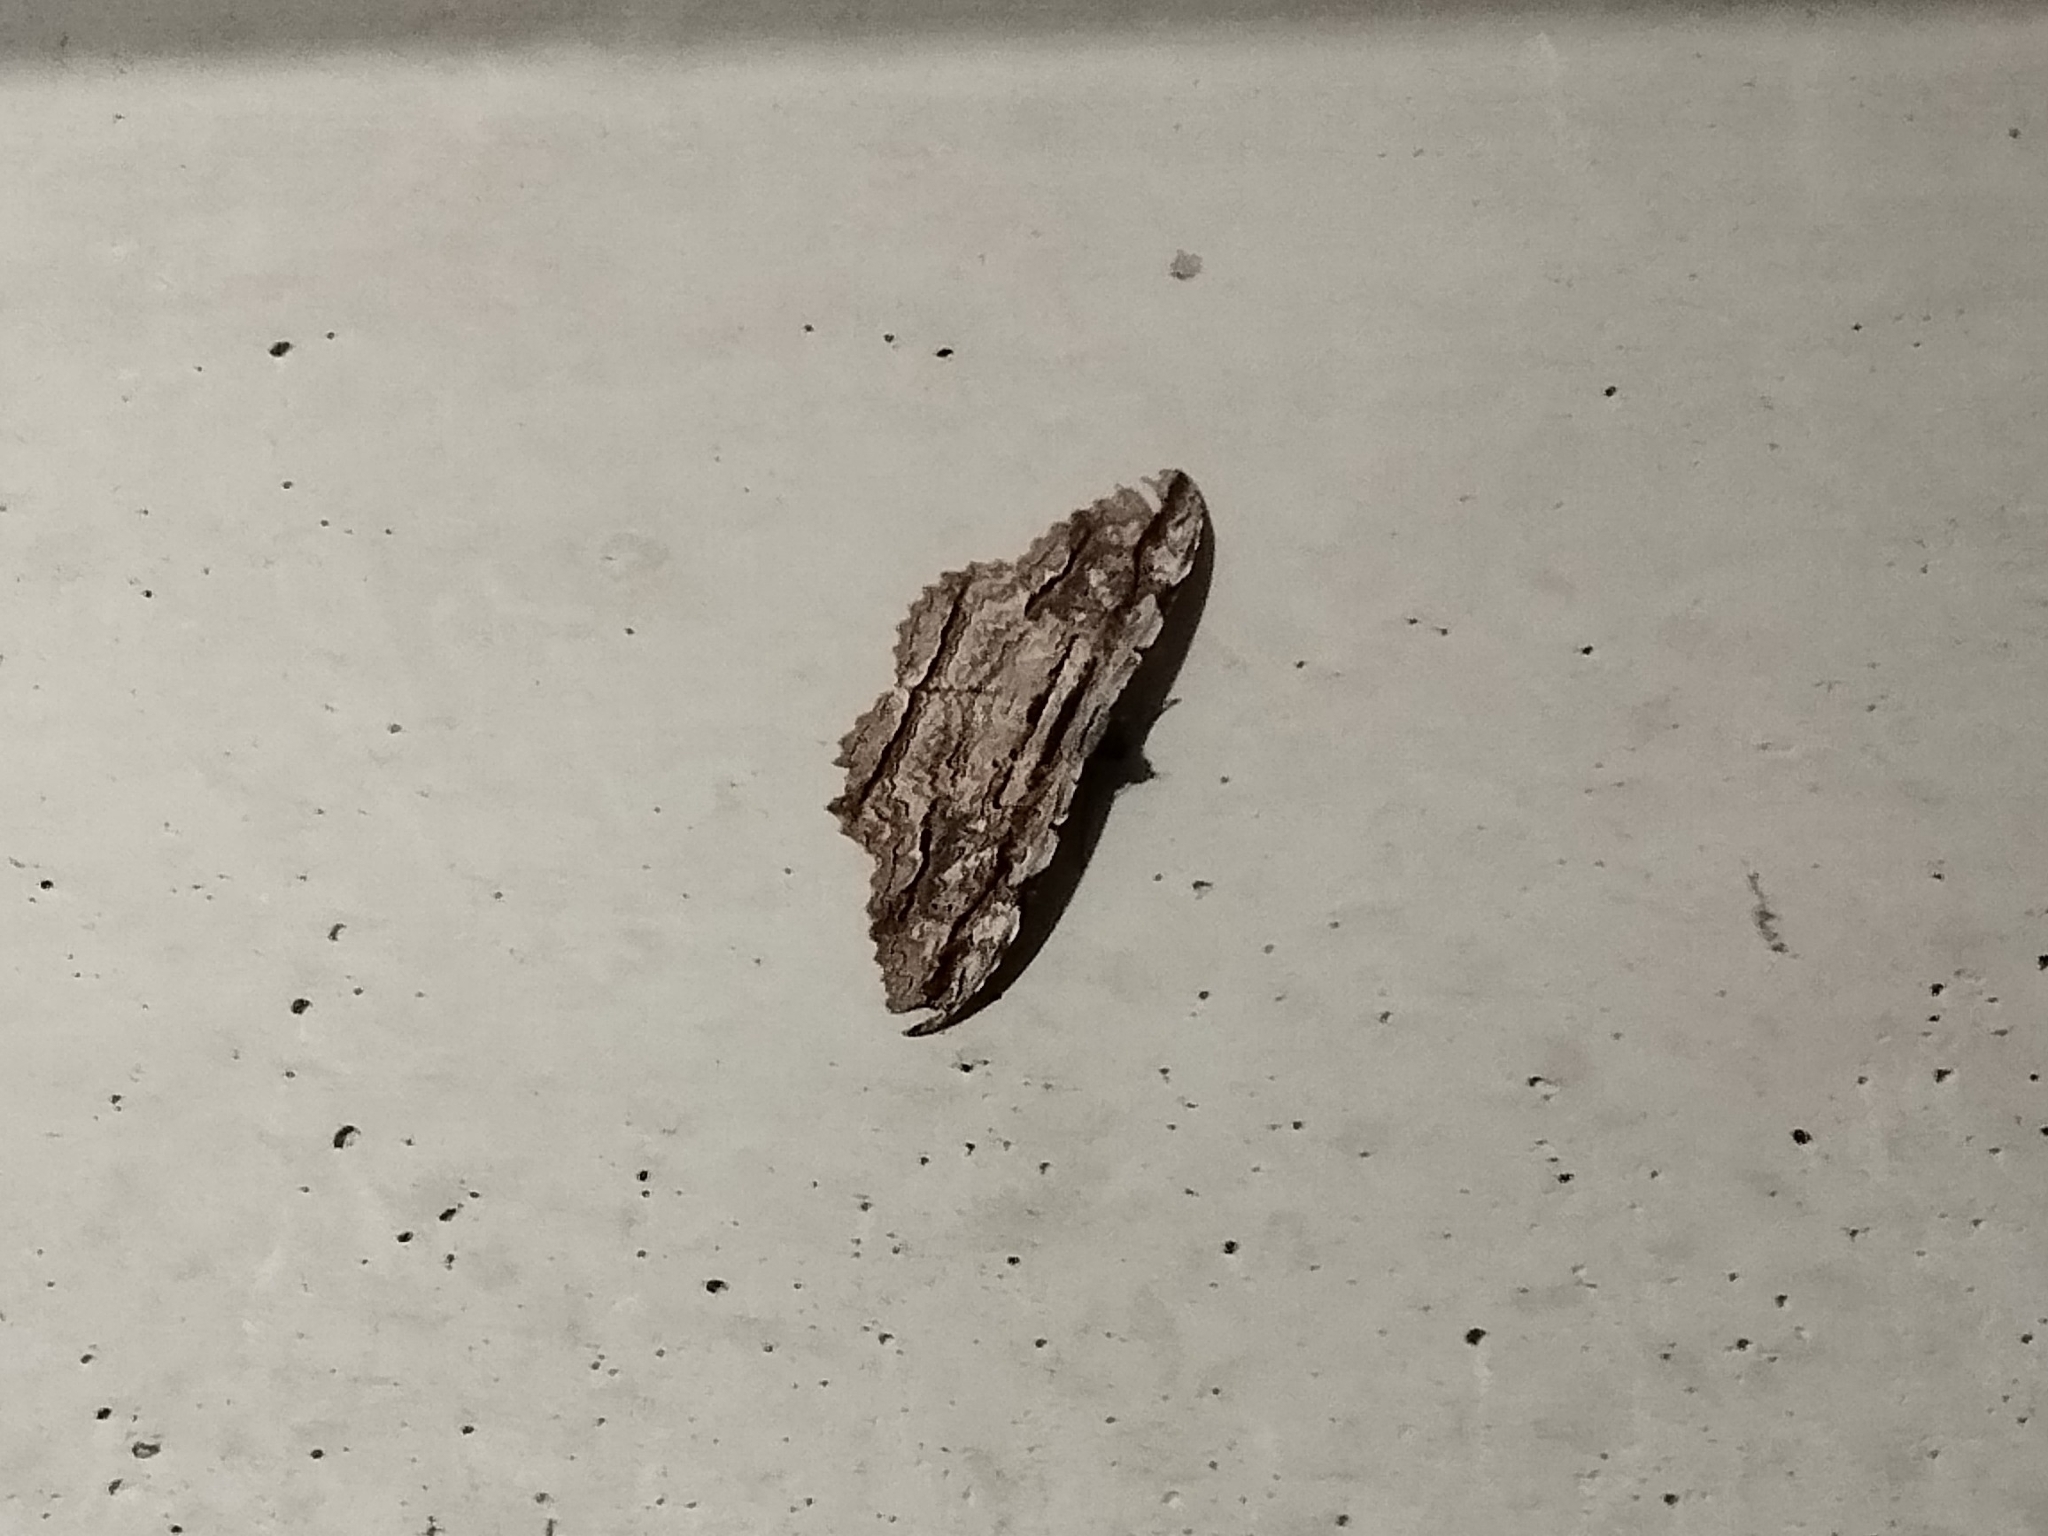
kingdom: Animalia
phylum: Arthropoda
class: Insecta
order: Lepidoptera
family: Erebidae
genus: Thysania
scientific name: Thysania zenobia
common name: Owl moth
